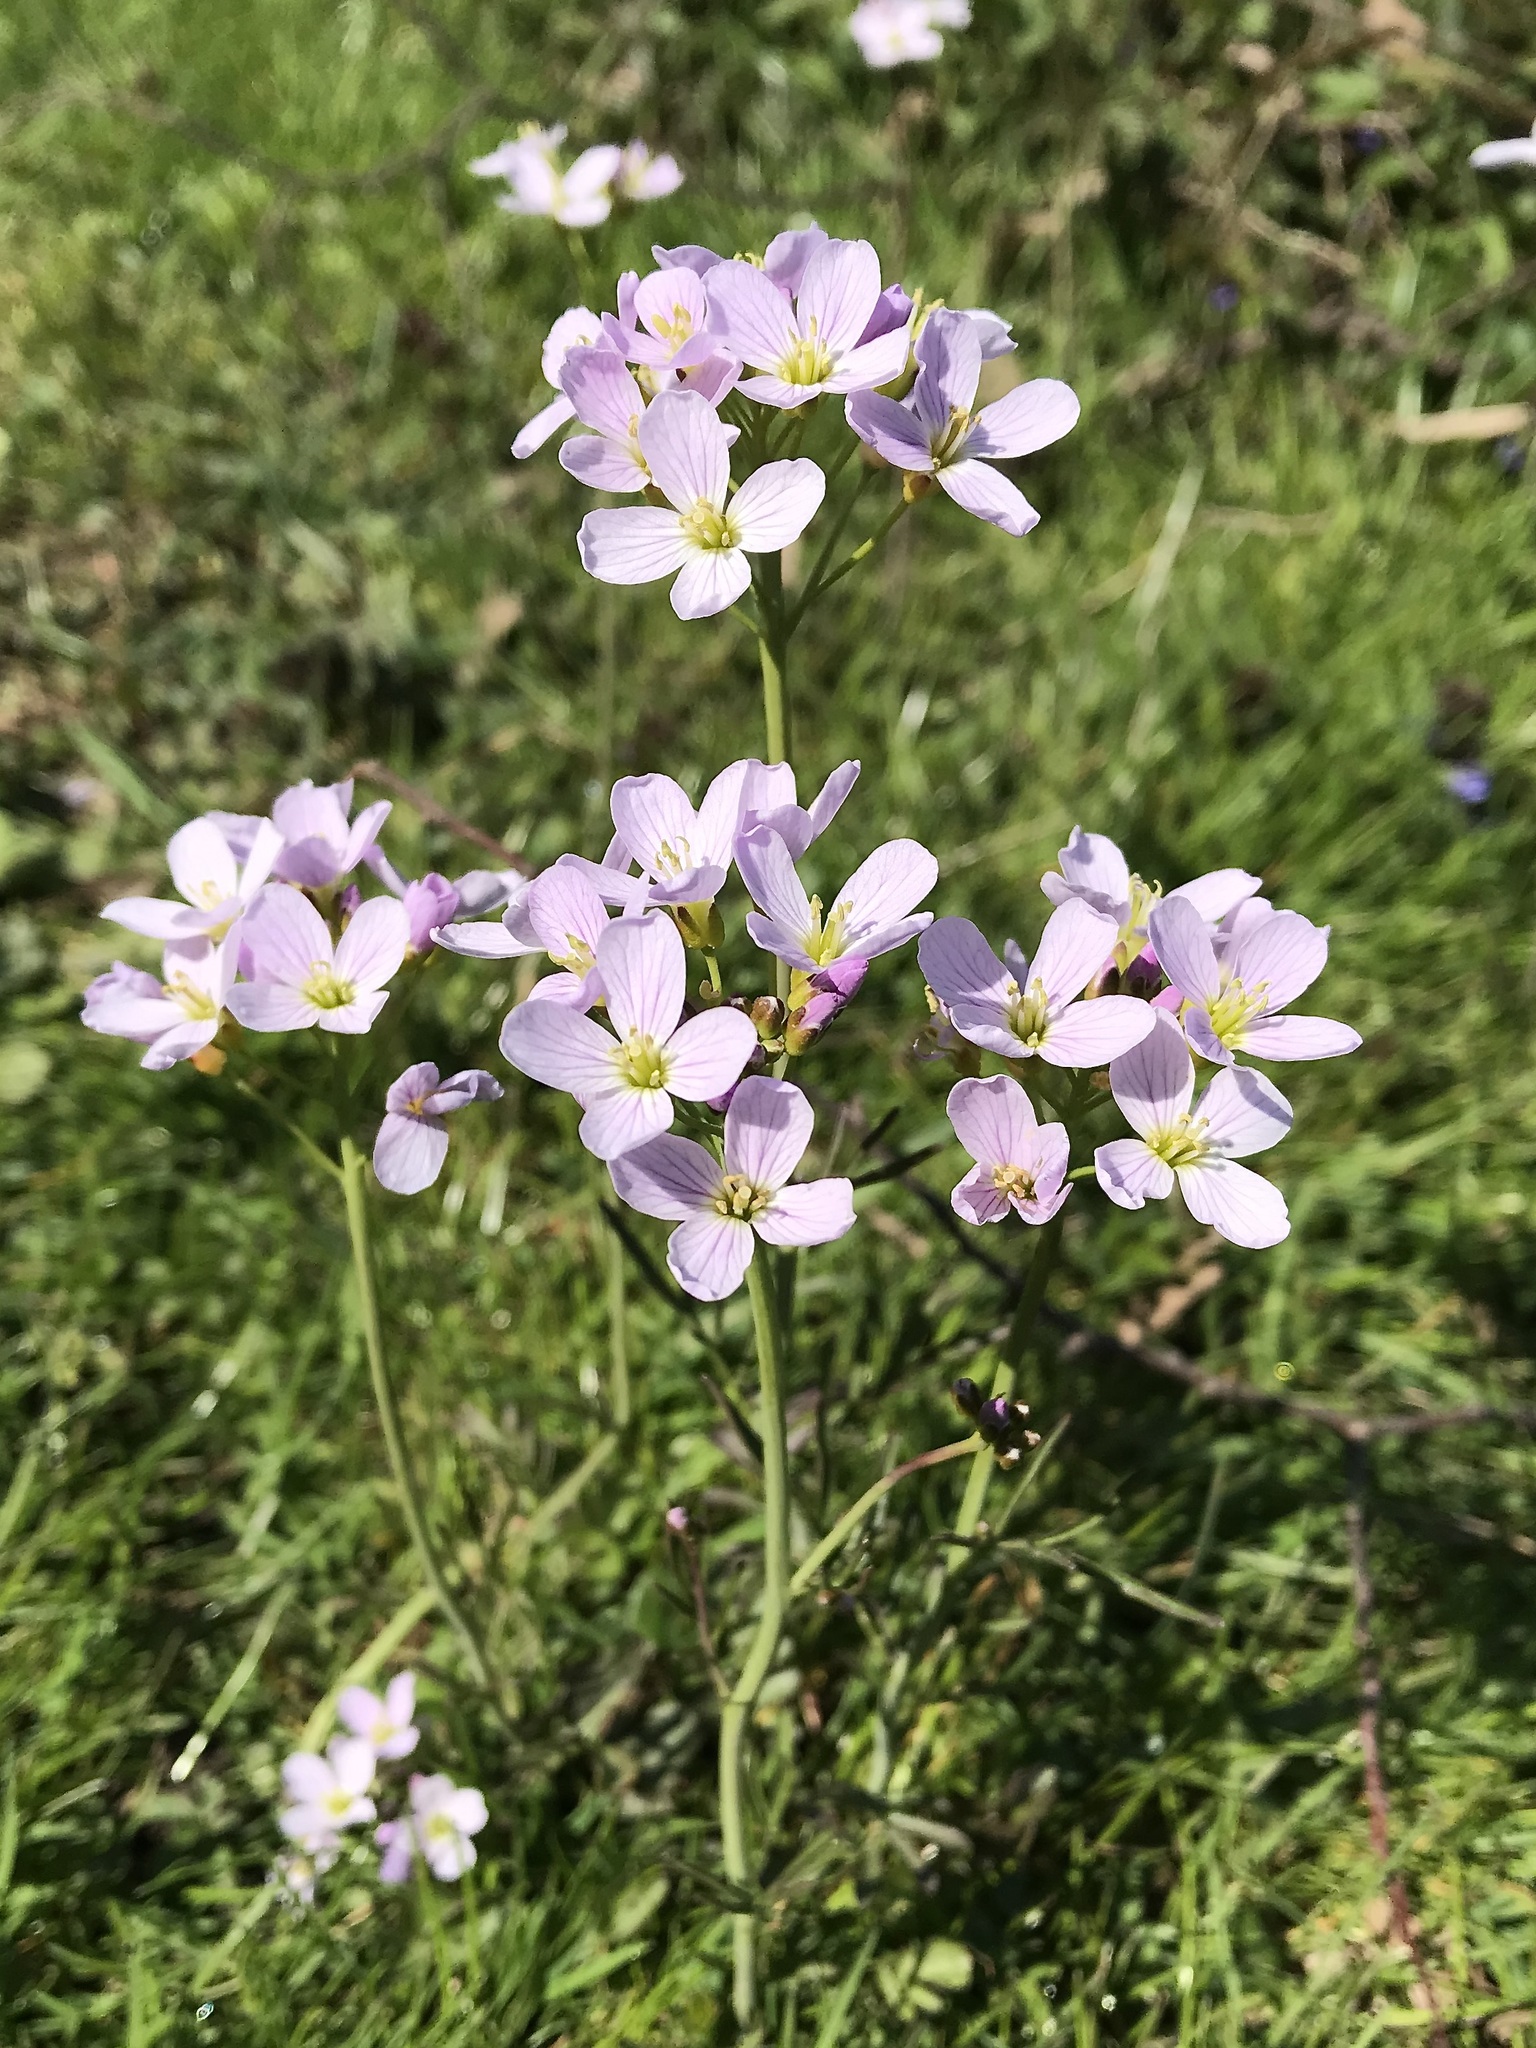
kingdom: Plantae
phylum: Tracheophyta
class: Magnoliopsida
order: Brassicales
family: Brassicaceae
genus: Cardamine
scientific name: Cardamine pratensis
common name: Cuckoo flower
